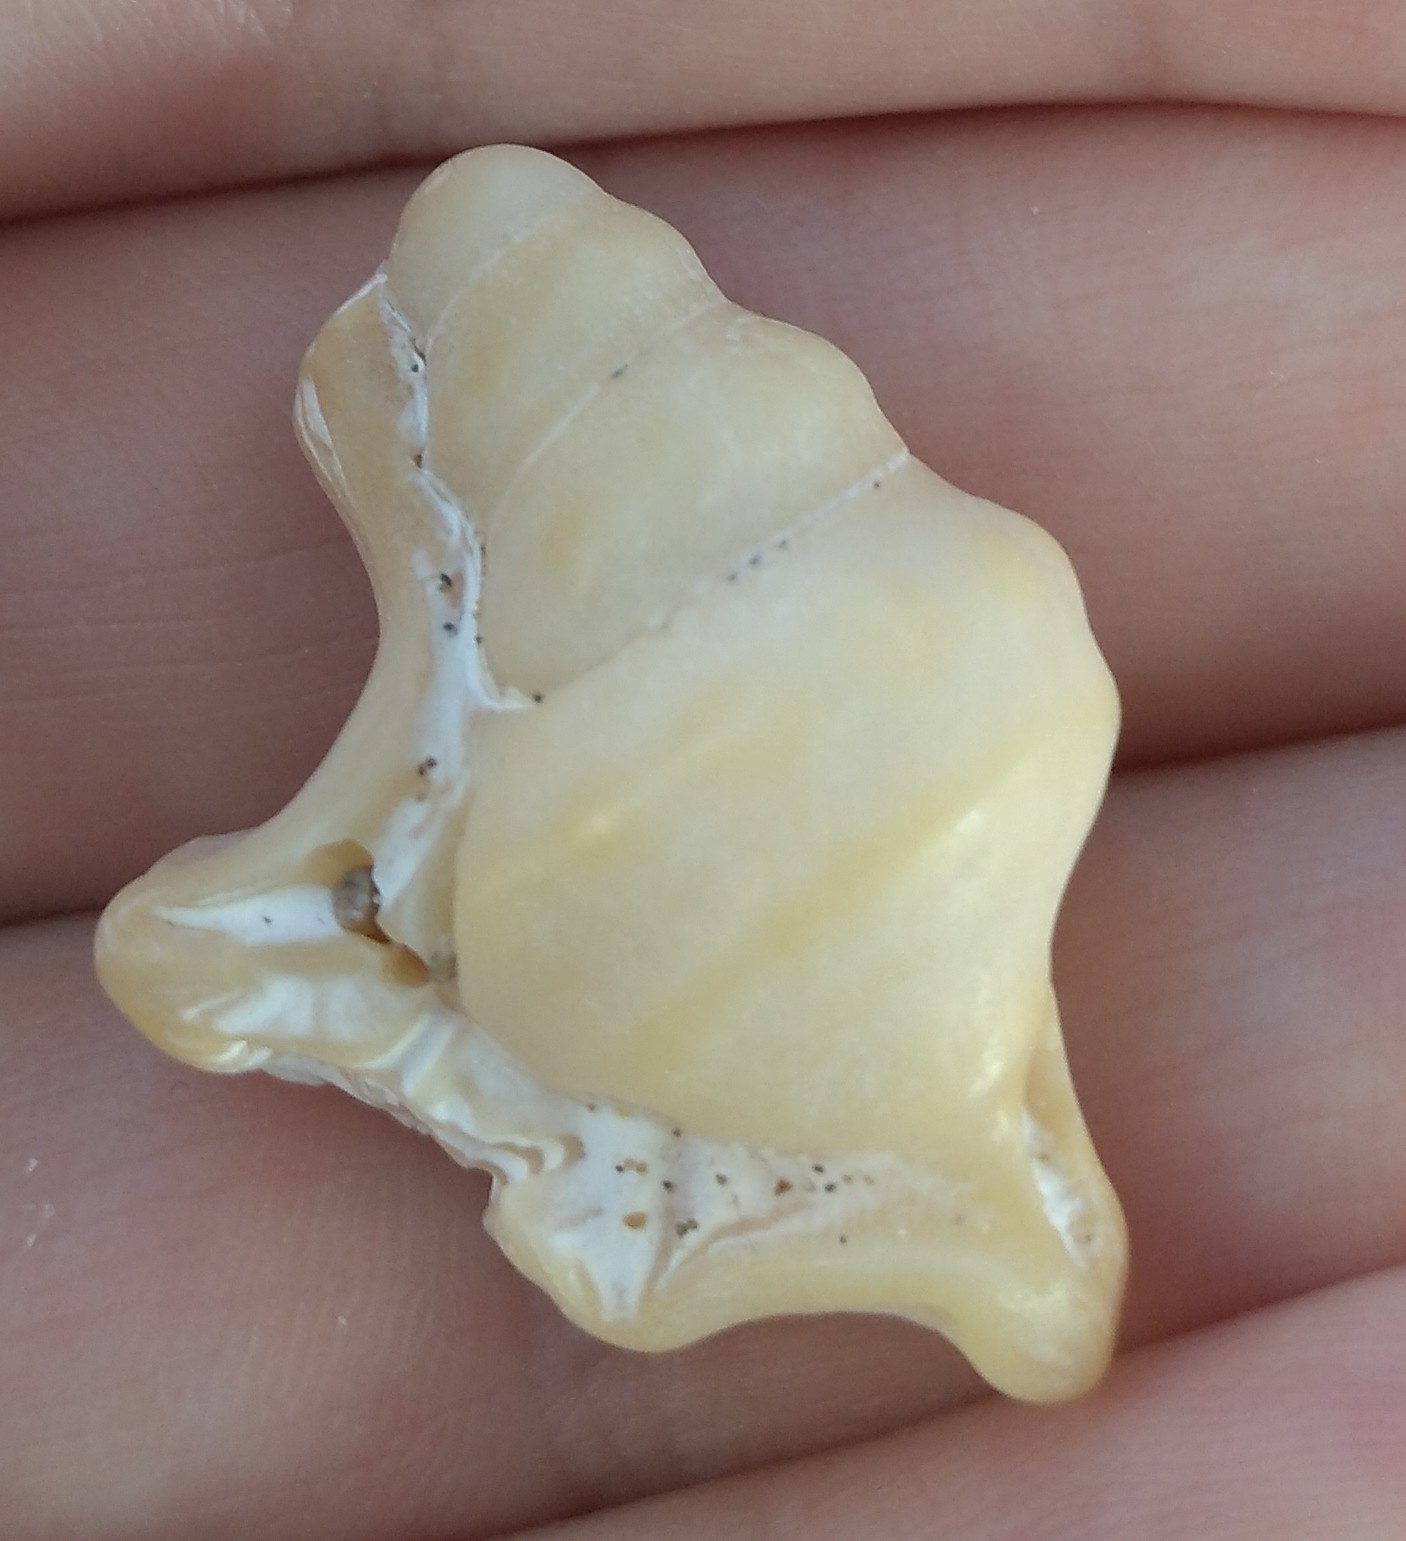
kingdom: Animalia
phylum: Mollusca
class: Gastropoda
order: Littorinimorpha
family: Aporrhaidae
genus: Aporrhais
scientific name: Aporrhais pespelecani
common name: Common pelican’s foot
